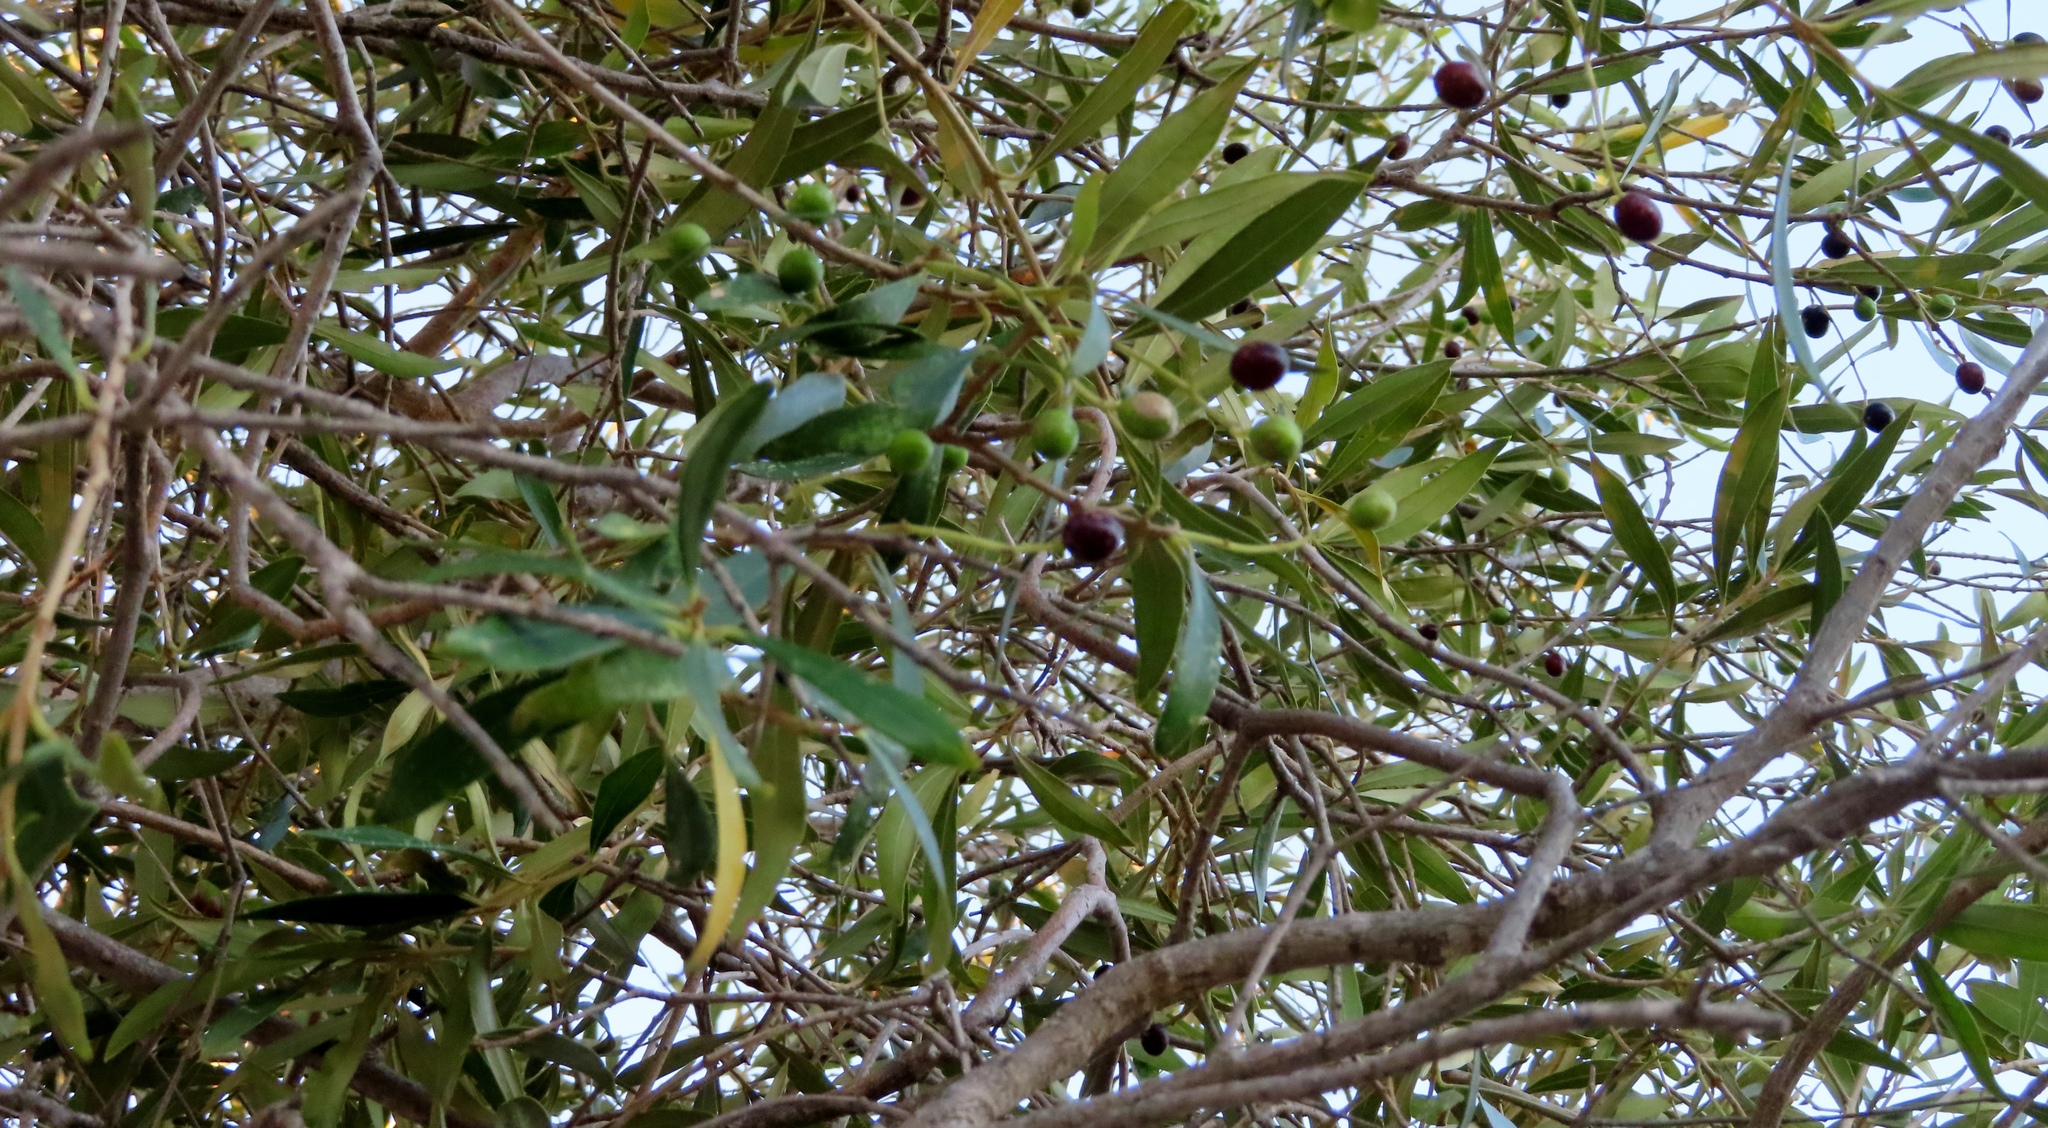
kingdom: Plantae
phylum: Tracheophyta
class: Magnoliopsida
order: Lamiales
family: Oleaceae
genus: Olea
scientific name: Olea europaea
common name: Olive
